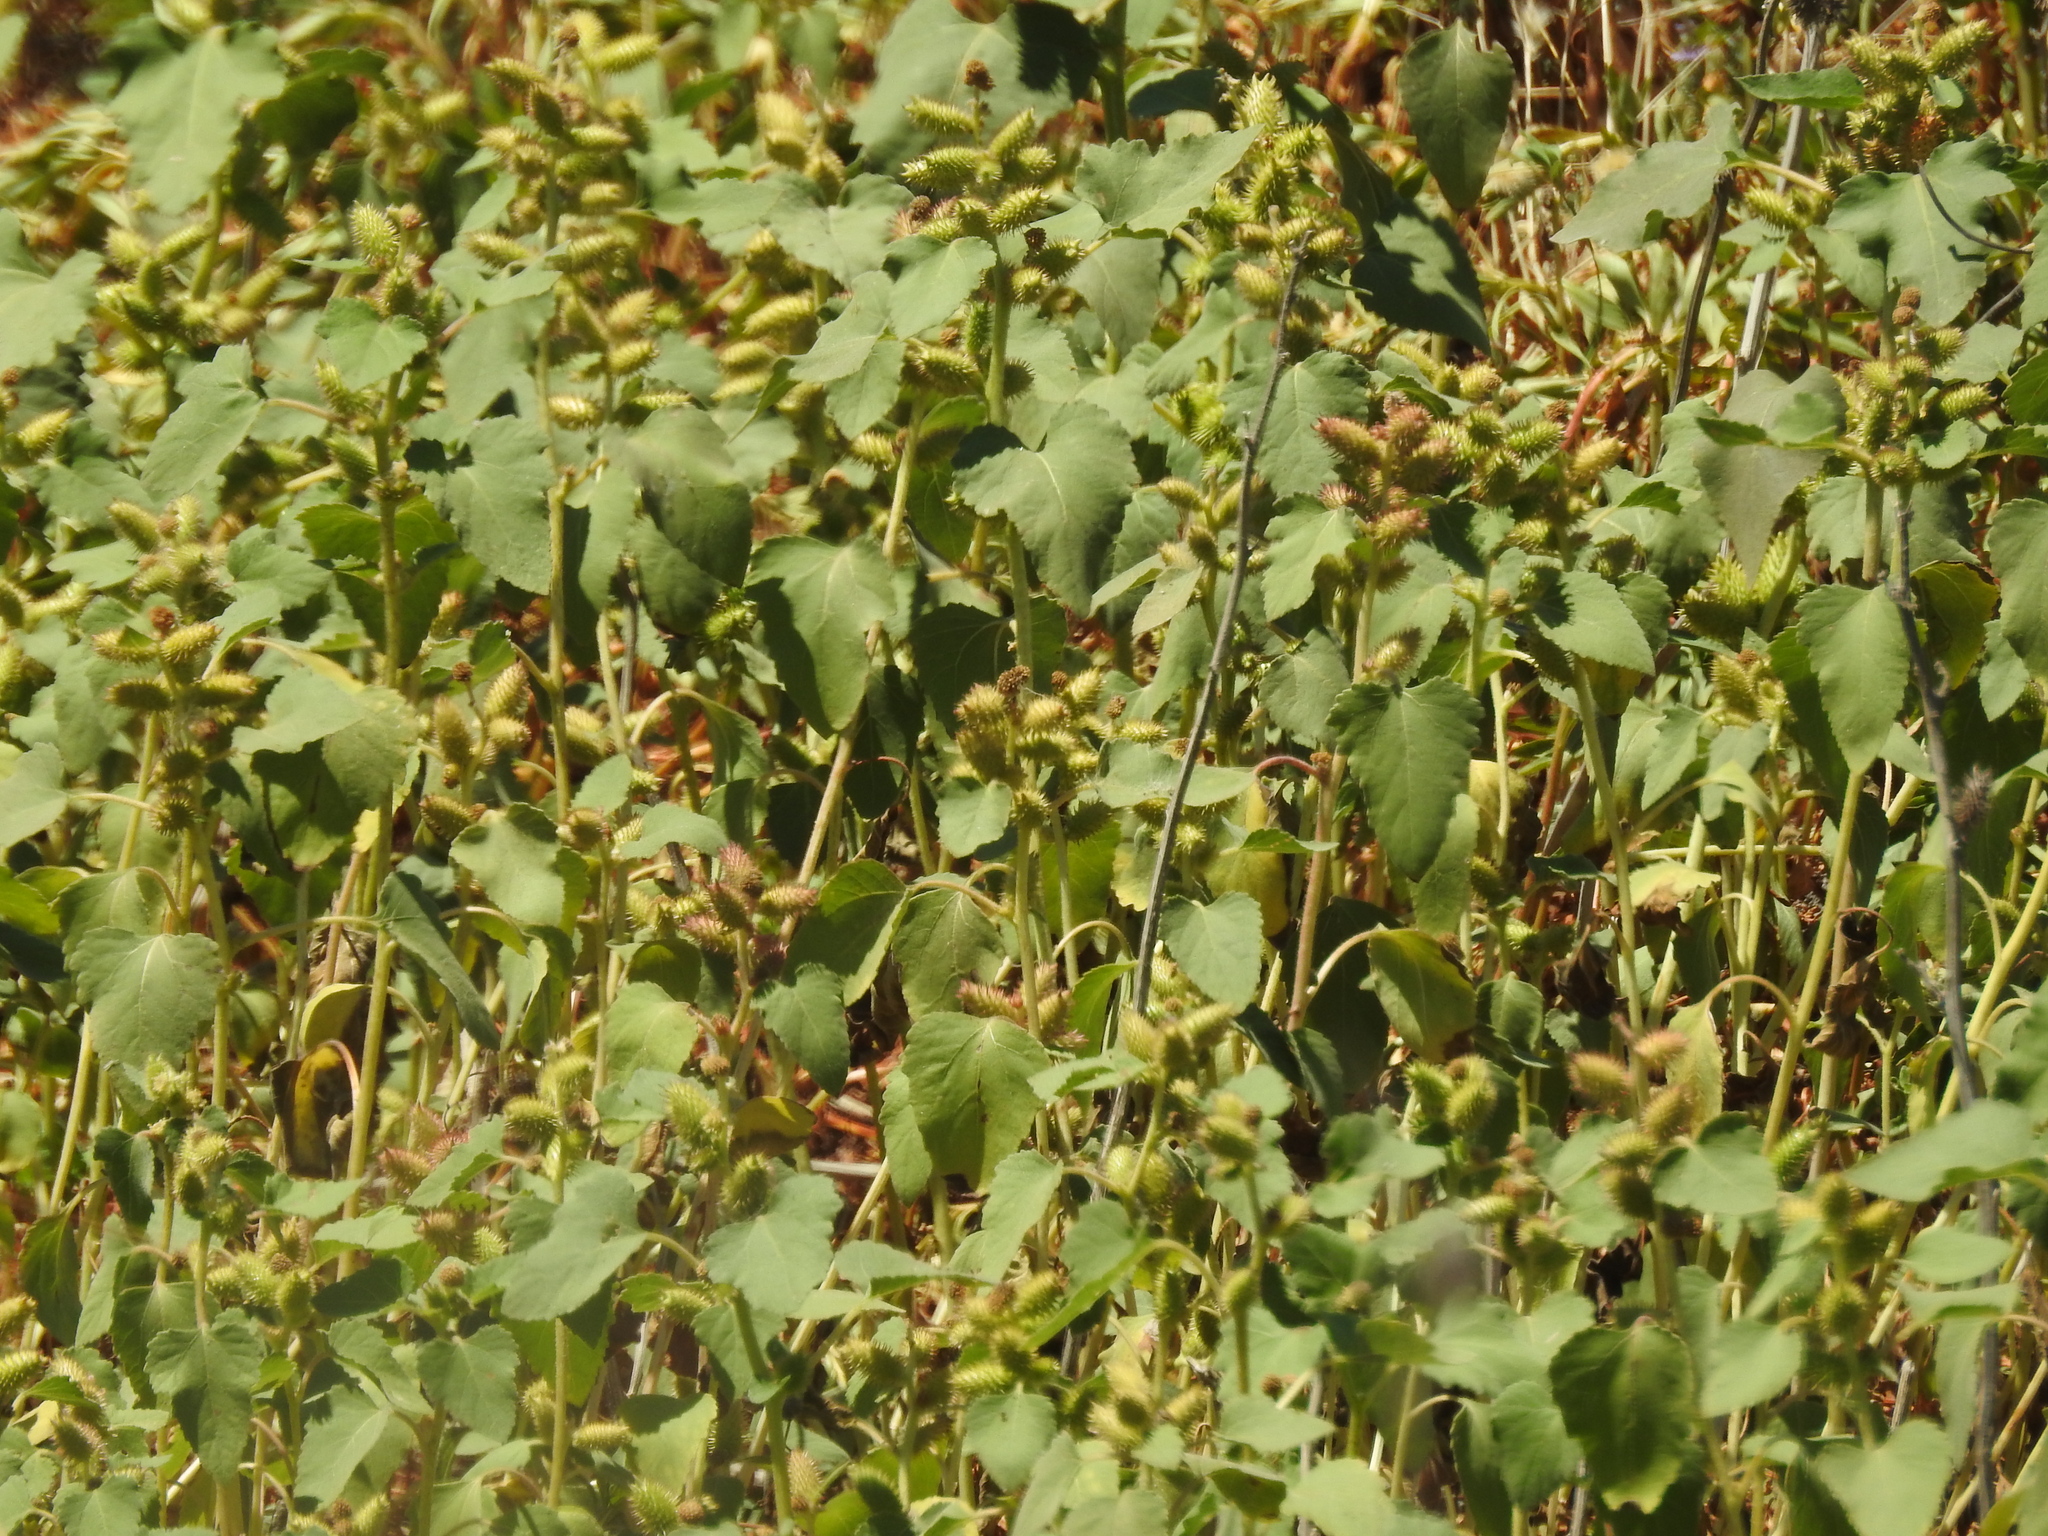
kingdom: Plantae
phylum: Tracheophyta
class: Magnoliopsida
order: Asterales
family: Asteraceae
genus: Xanthium
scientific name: Xanthium strumarium
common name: Rough cocklebur
